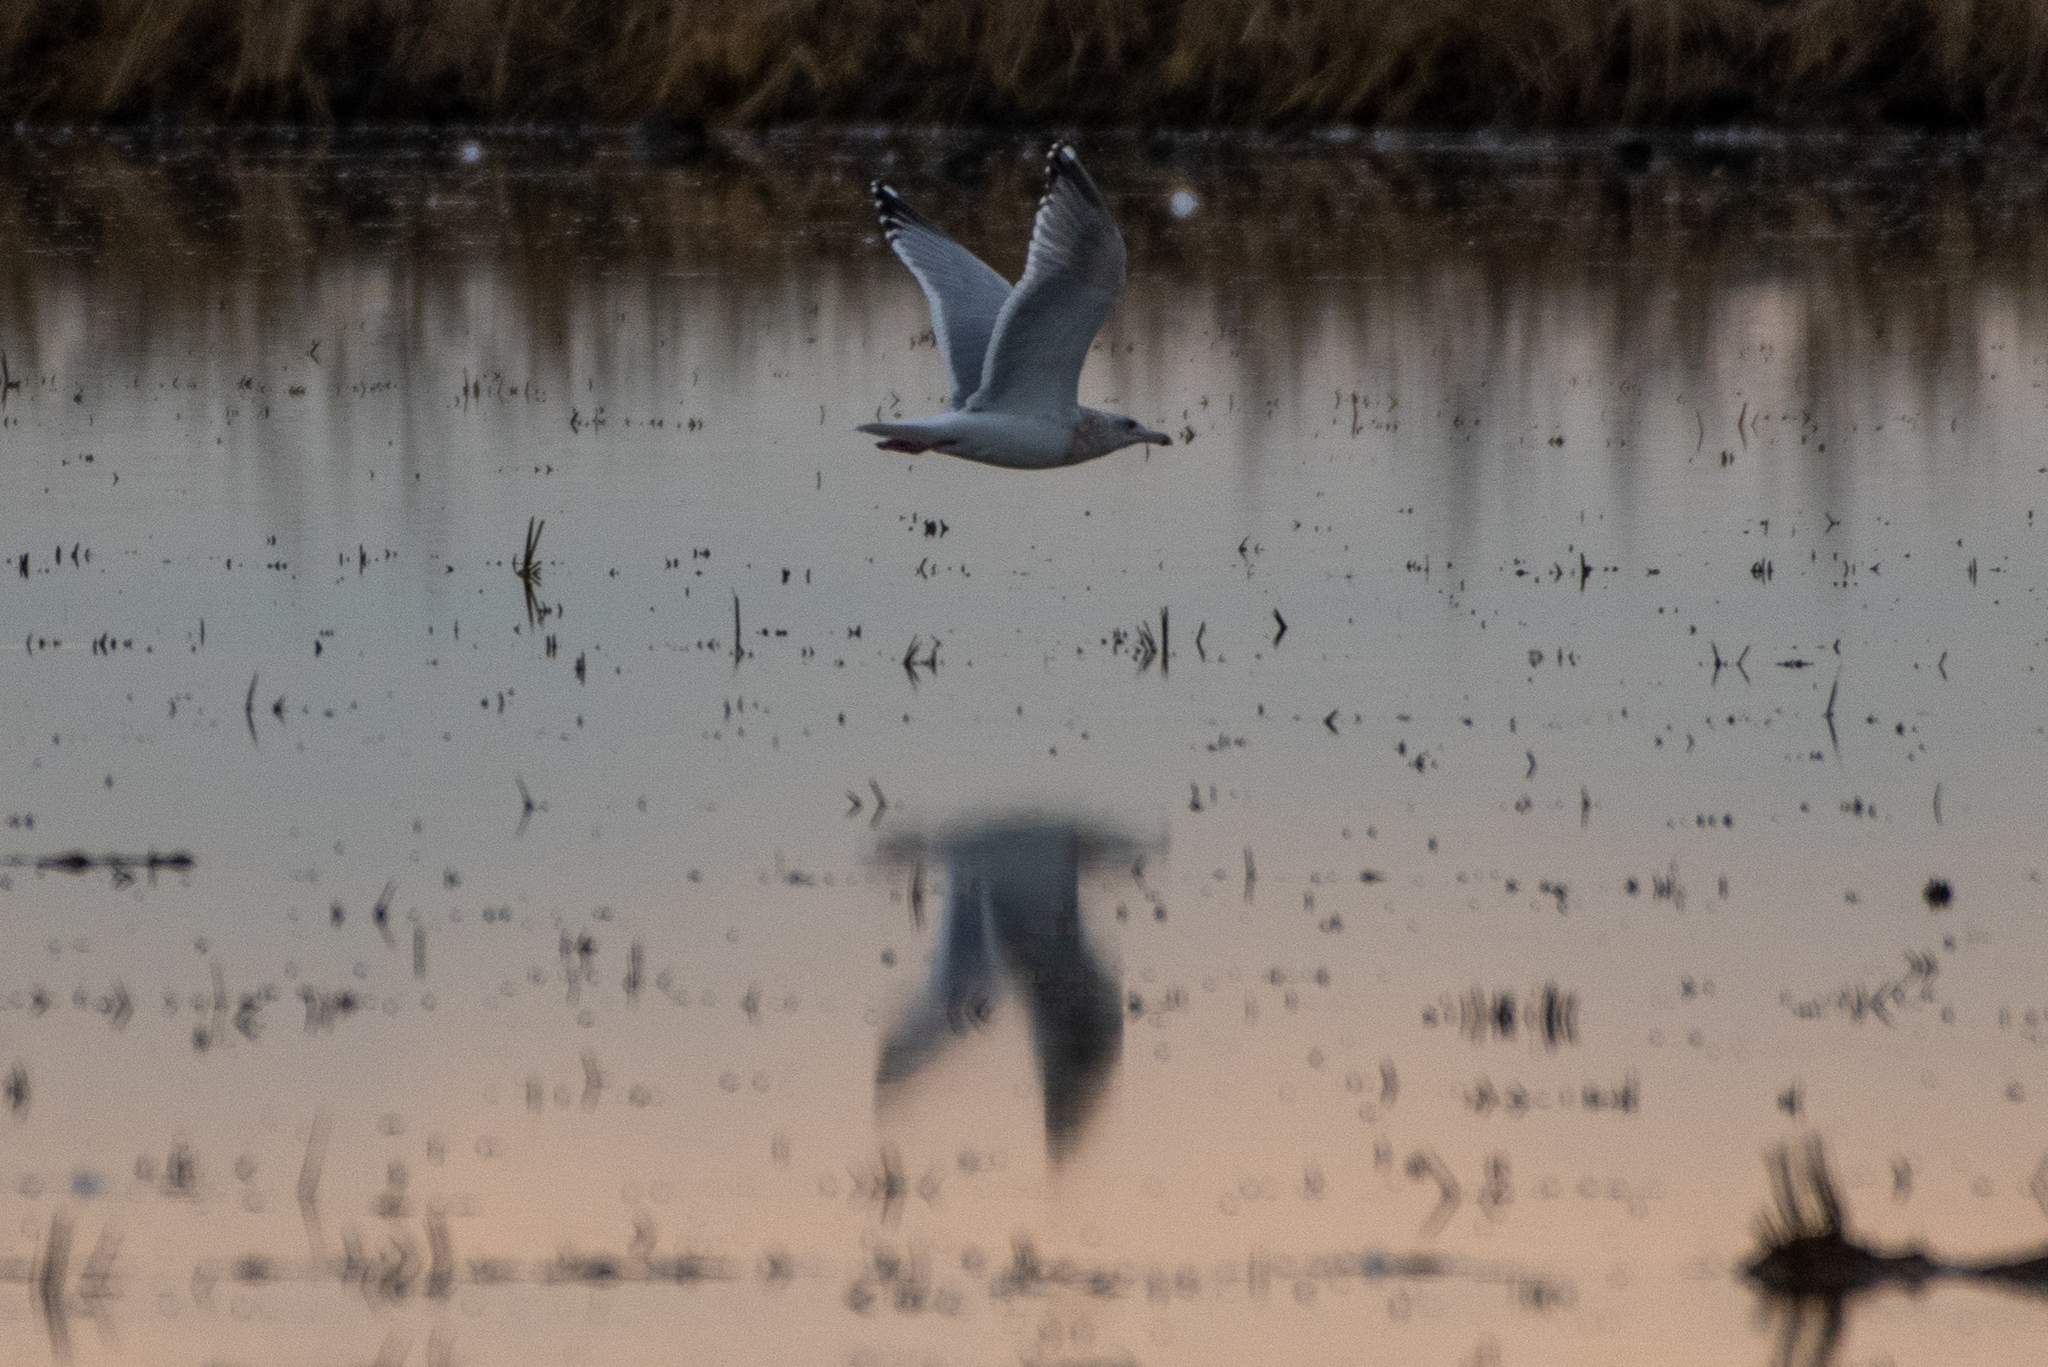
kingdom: Animalia
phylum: Chordata
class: Aves
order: Charadriiformes
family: Laridae
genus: Larus
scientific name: Larus argentatus
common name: Herring gull
